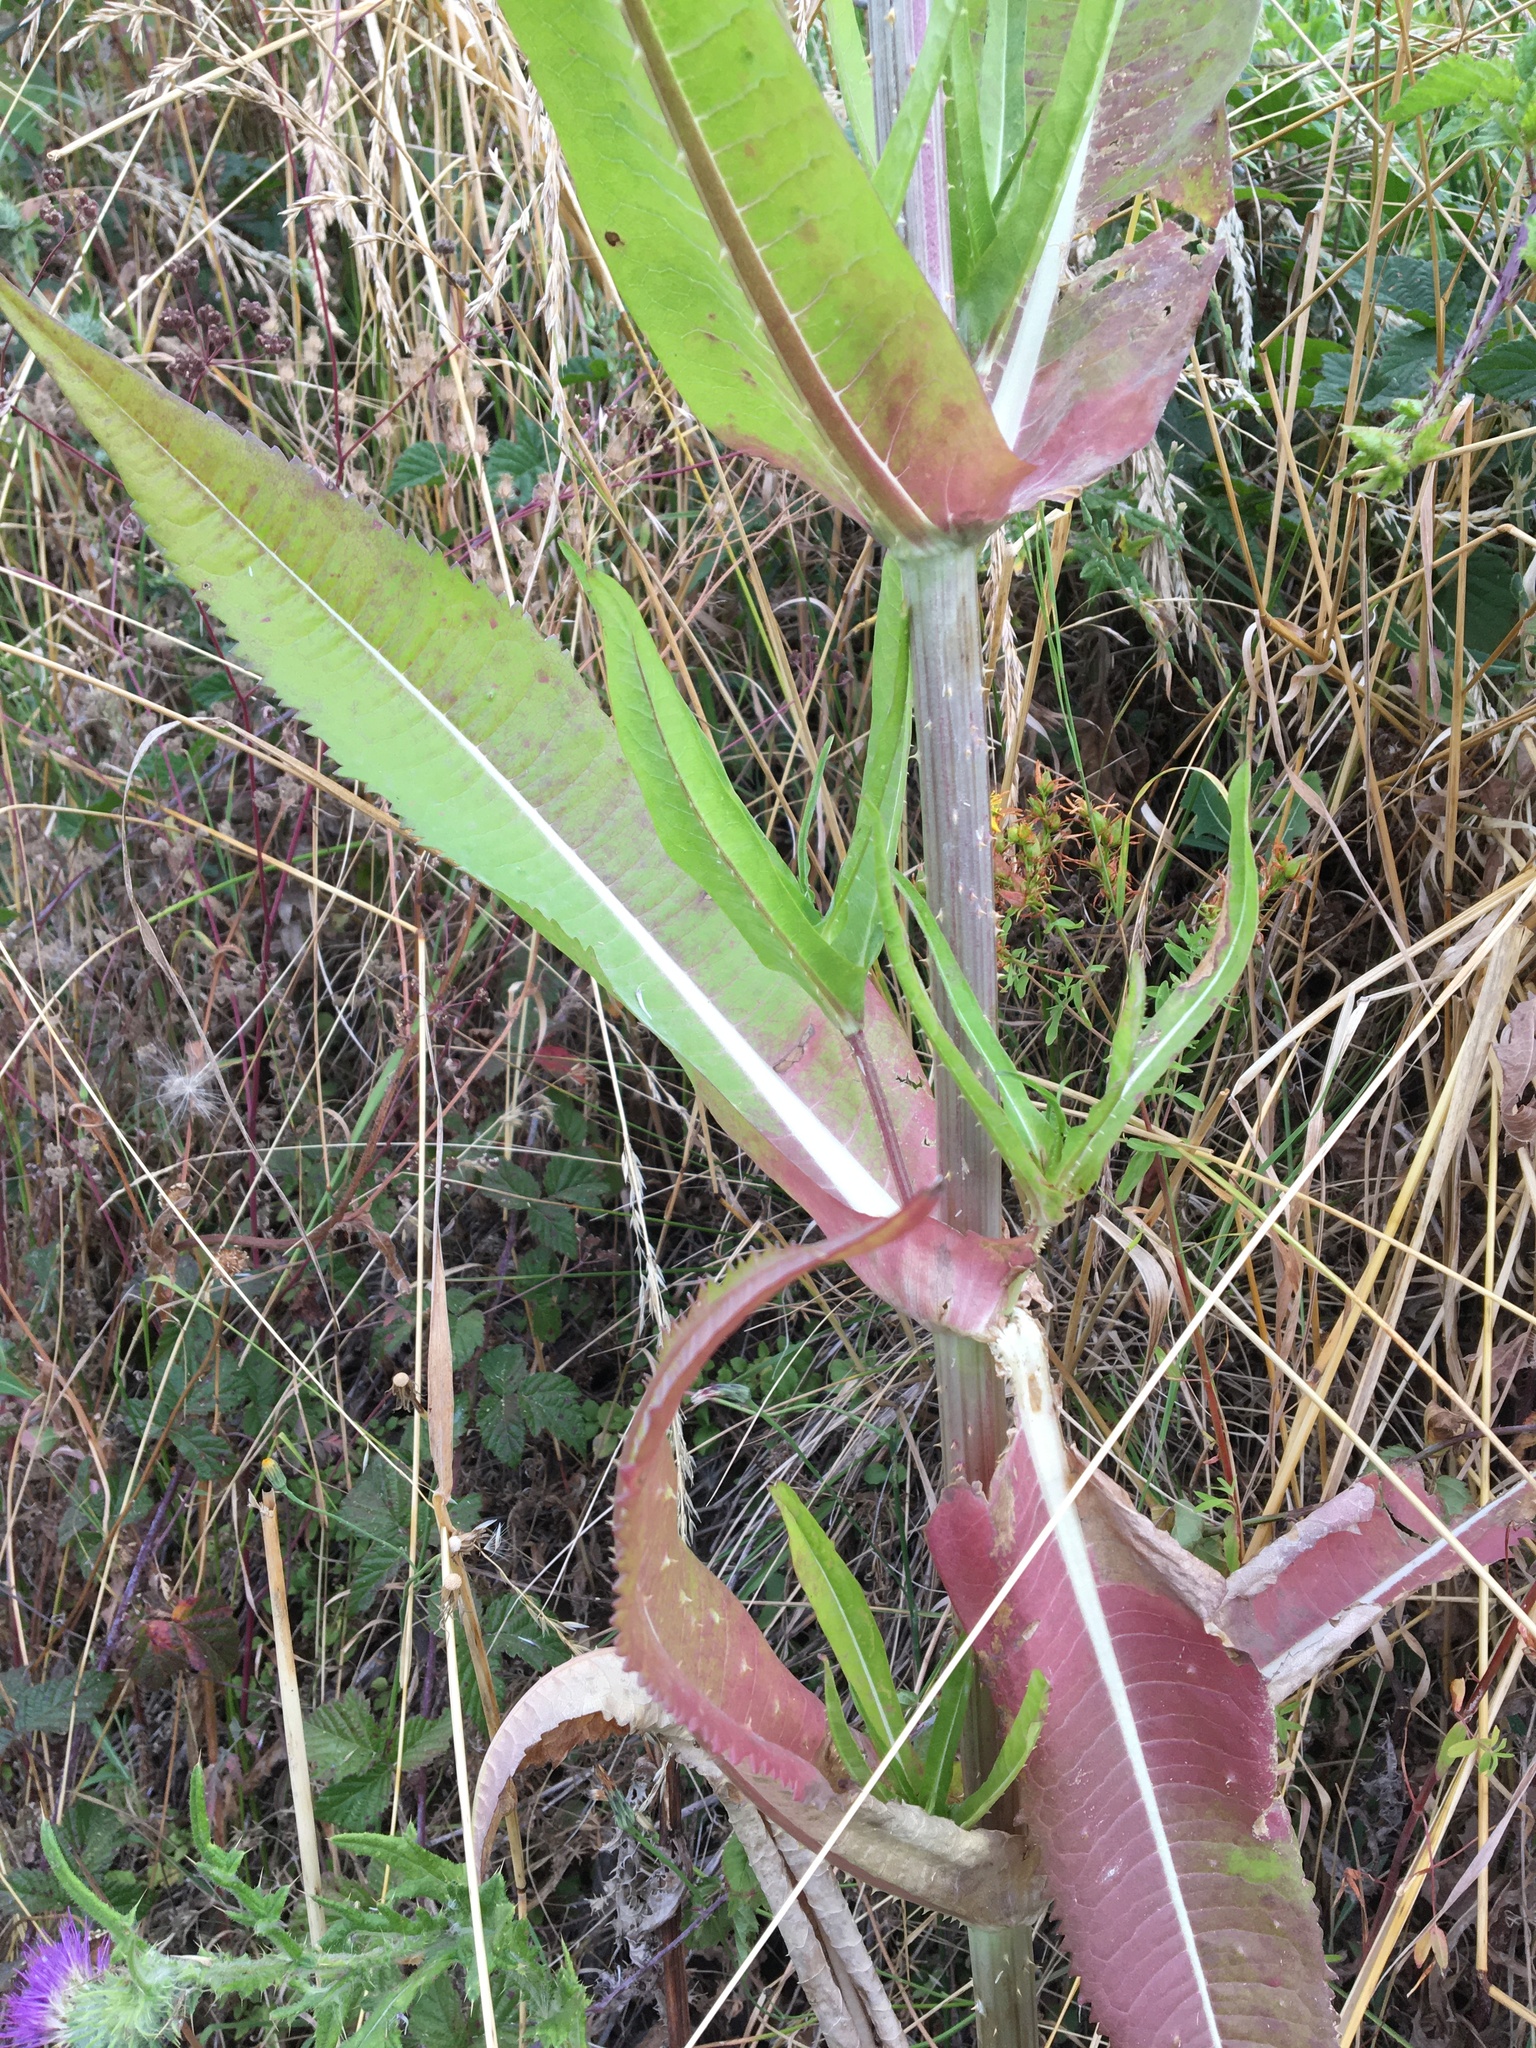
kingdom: Plantae
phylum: Tracheophyta
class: Magnoliopsida
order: Dipsacales
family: Caprifoliaceae
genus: Dipsacus
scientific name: Dipsacus fullonum
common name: Teasel
